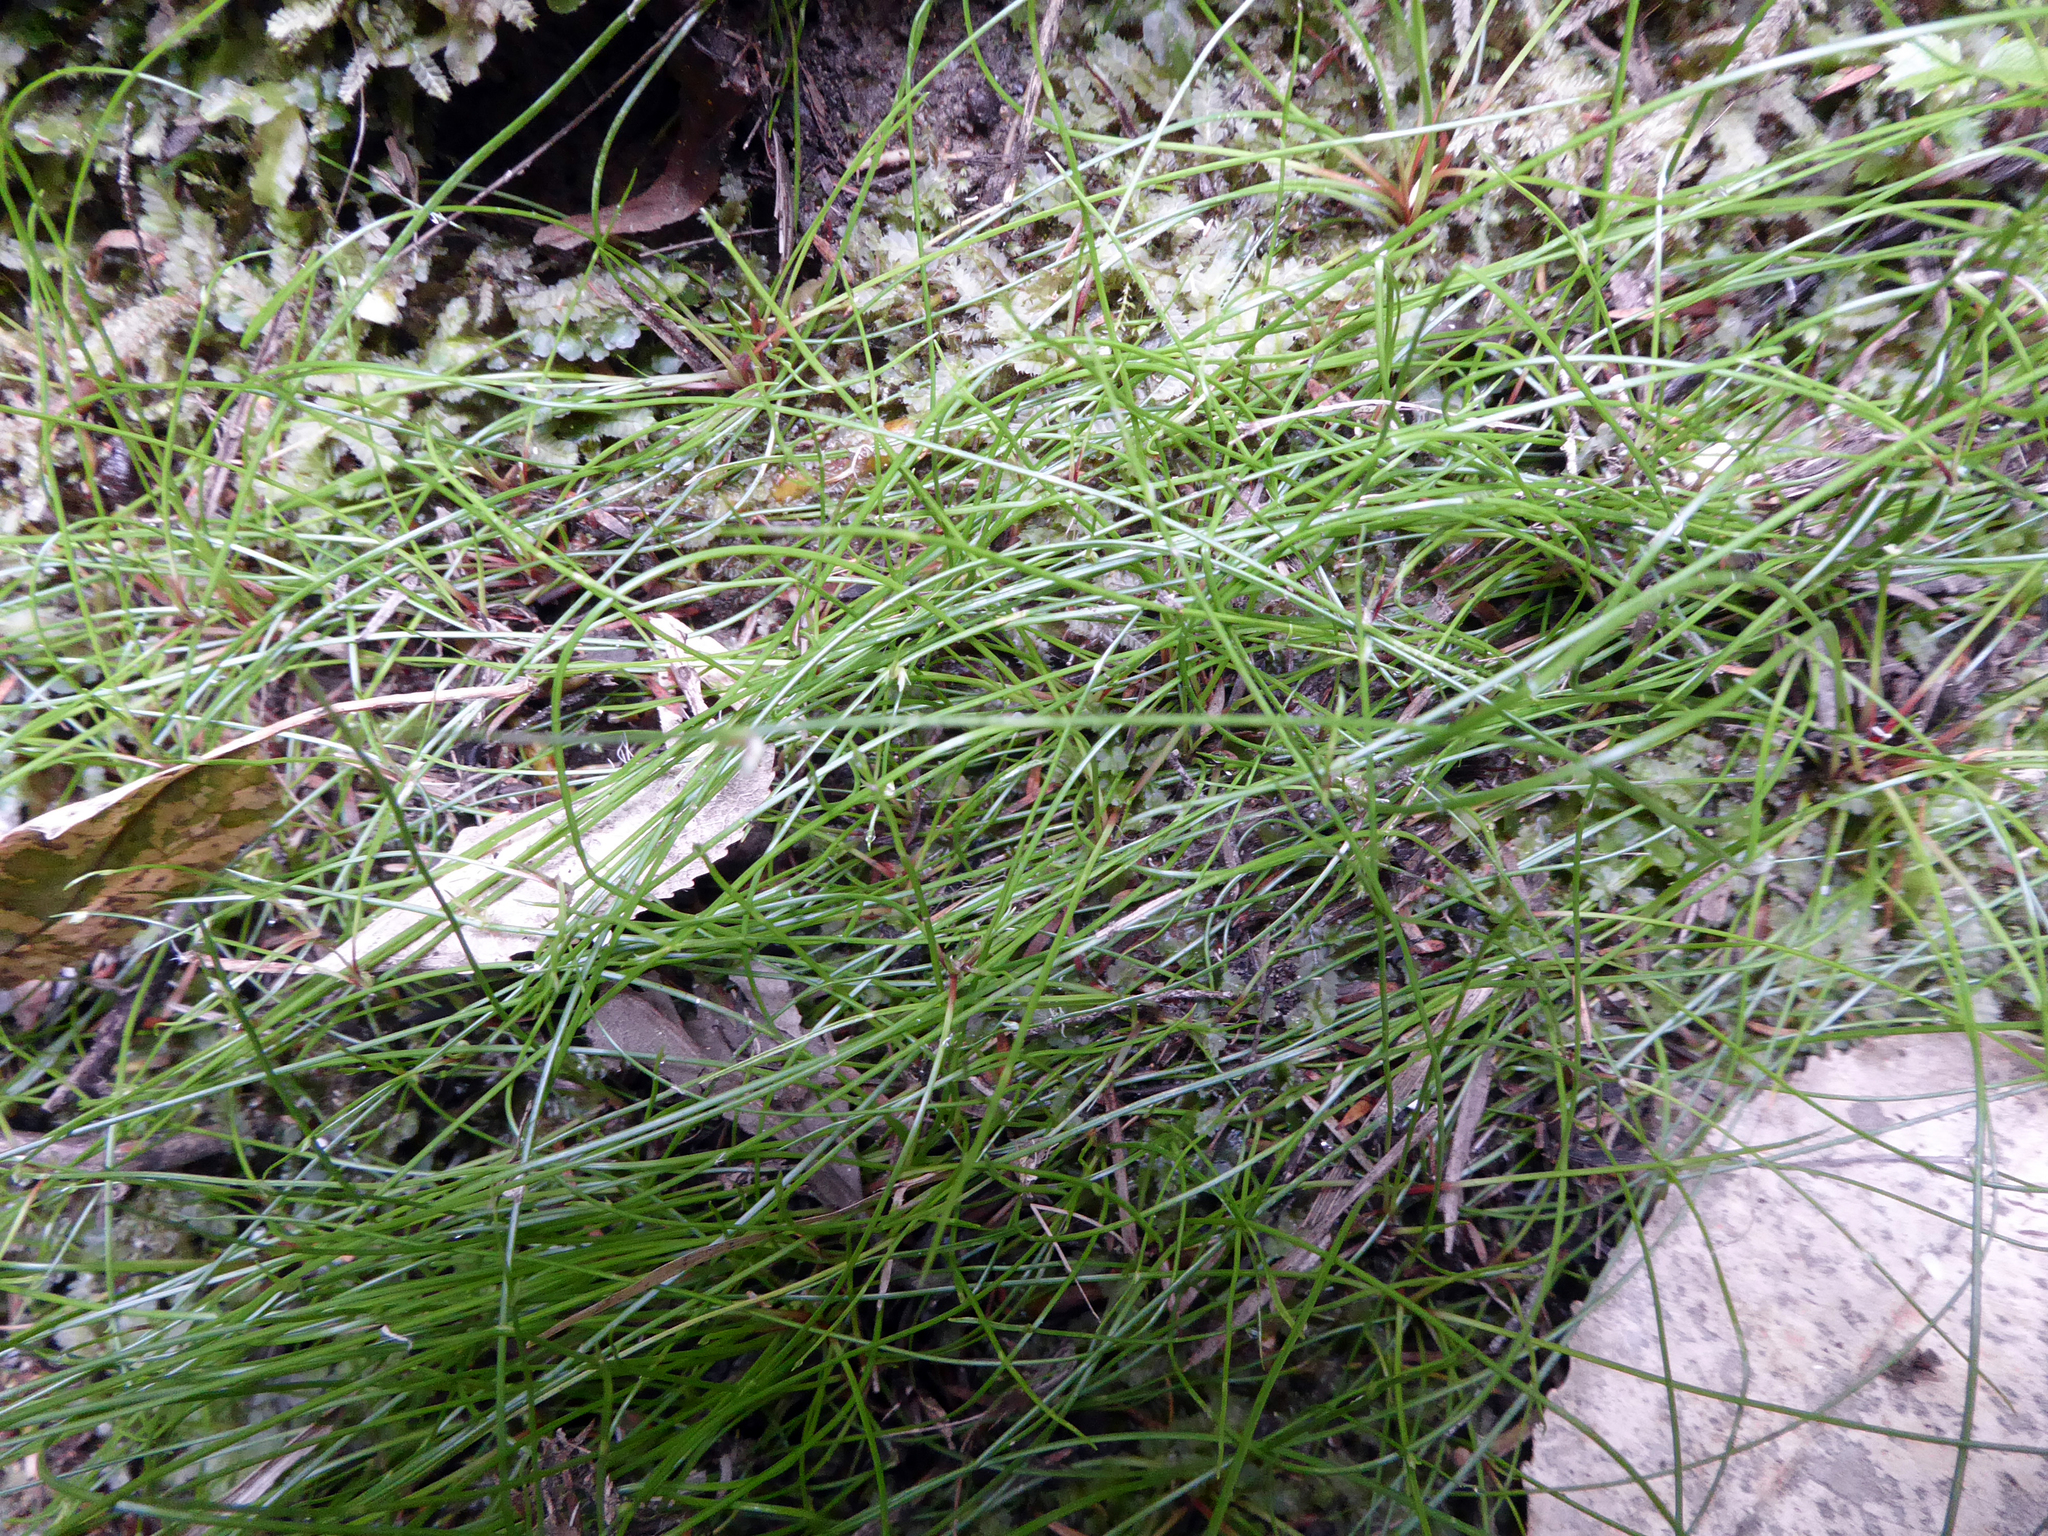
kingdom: Plantae
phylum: Tracheophyta
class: Liliopsida
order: Poales
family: Cyperaceae
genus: Isolepis
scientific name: Isolepis reticularis
